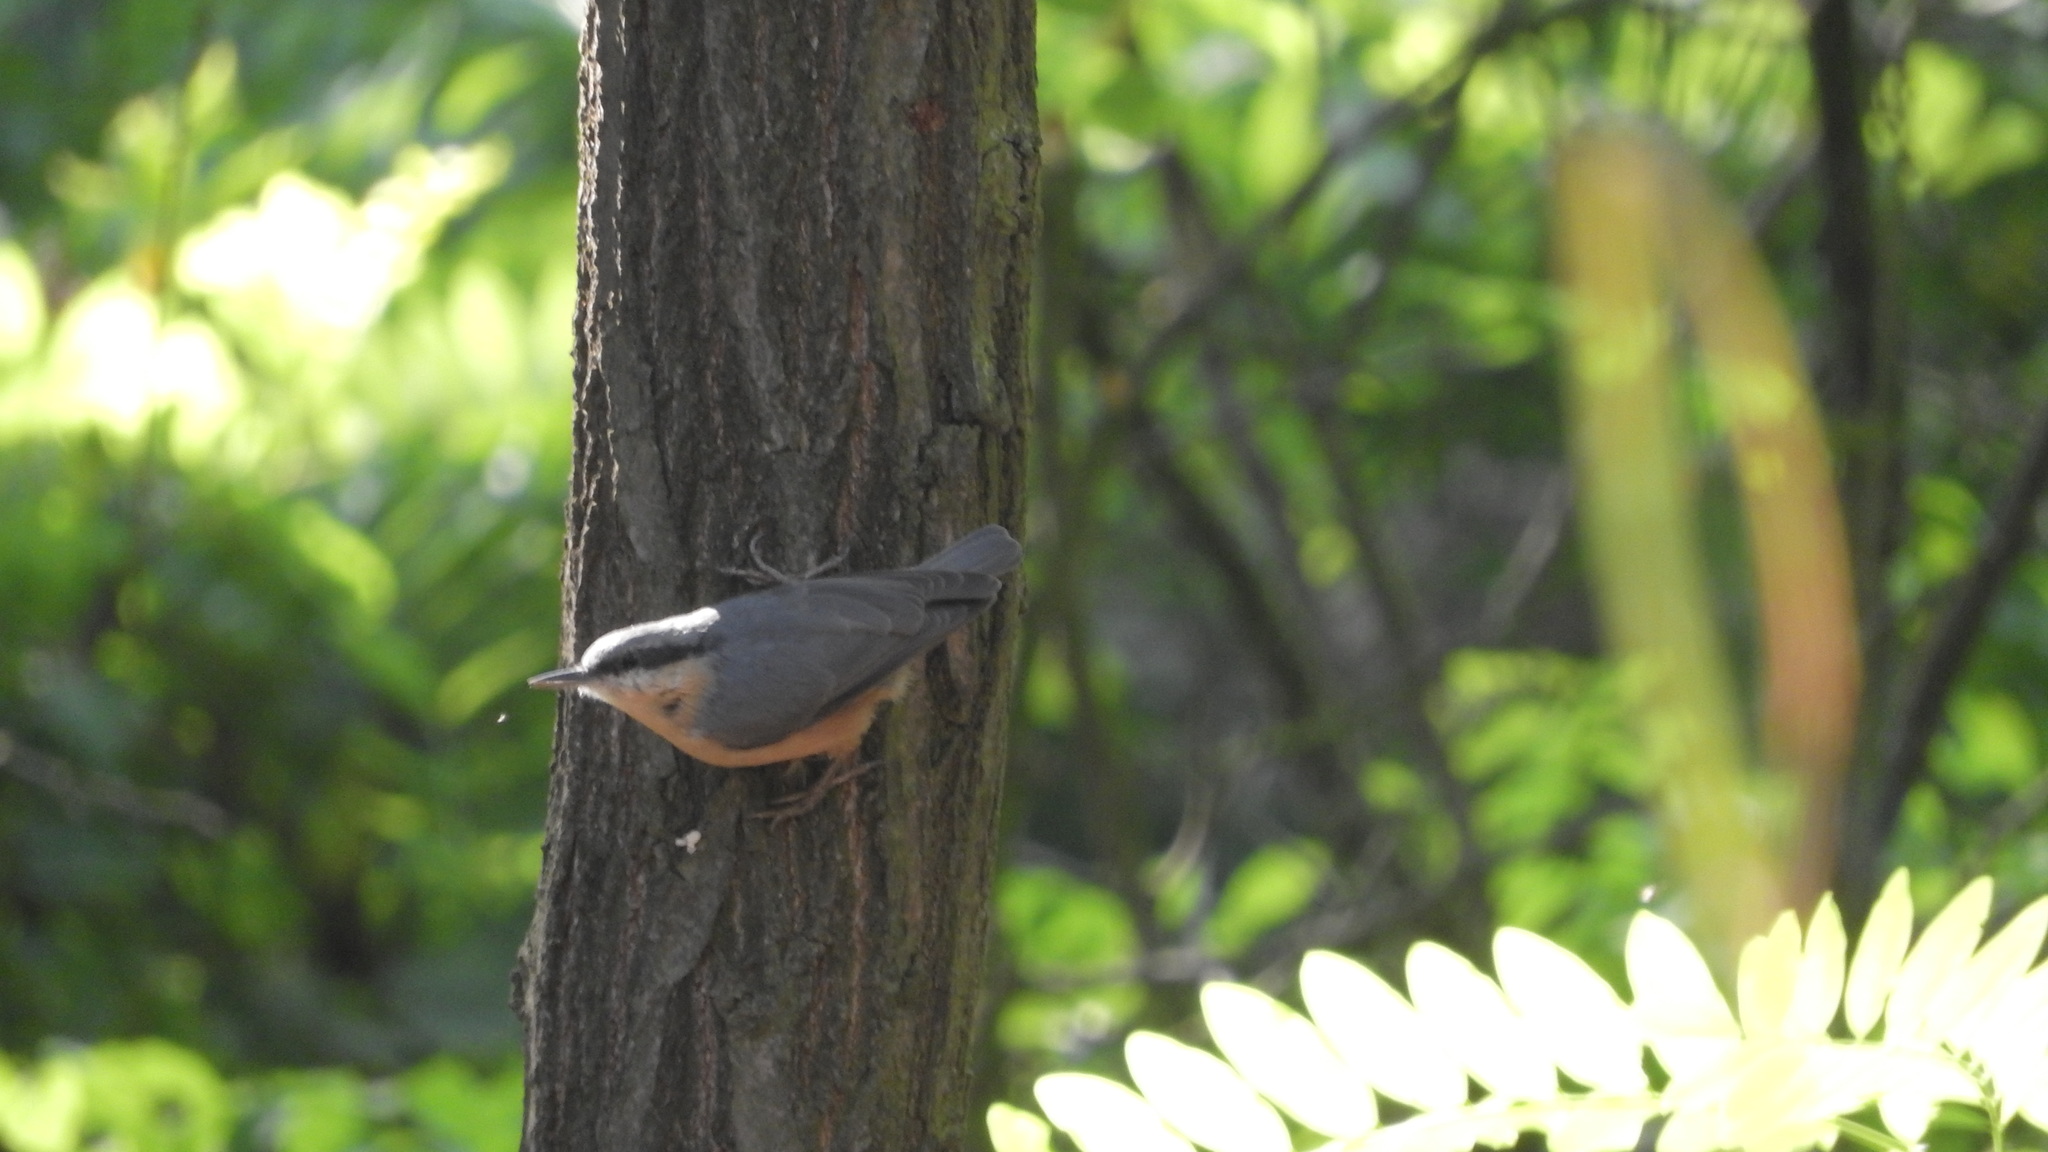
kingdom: Animalia
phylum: Chordata
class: Aves
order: Passeriformes
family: Sittidae
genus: Sitta
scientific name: Sitta europaea
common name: Eurasian nuthatch
